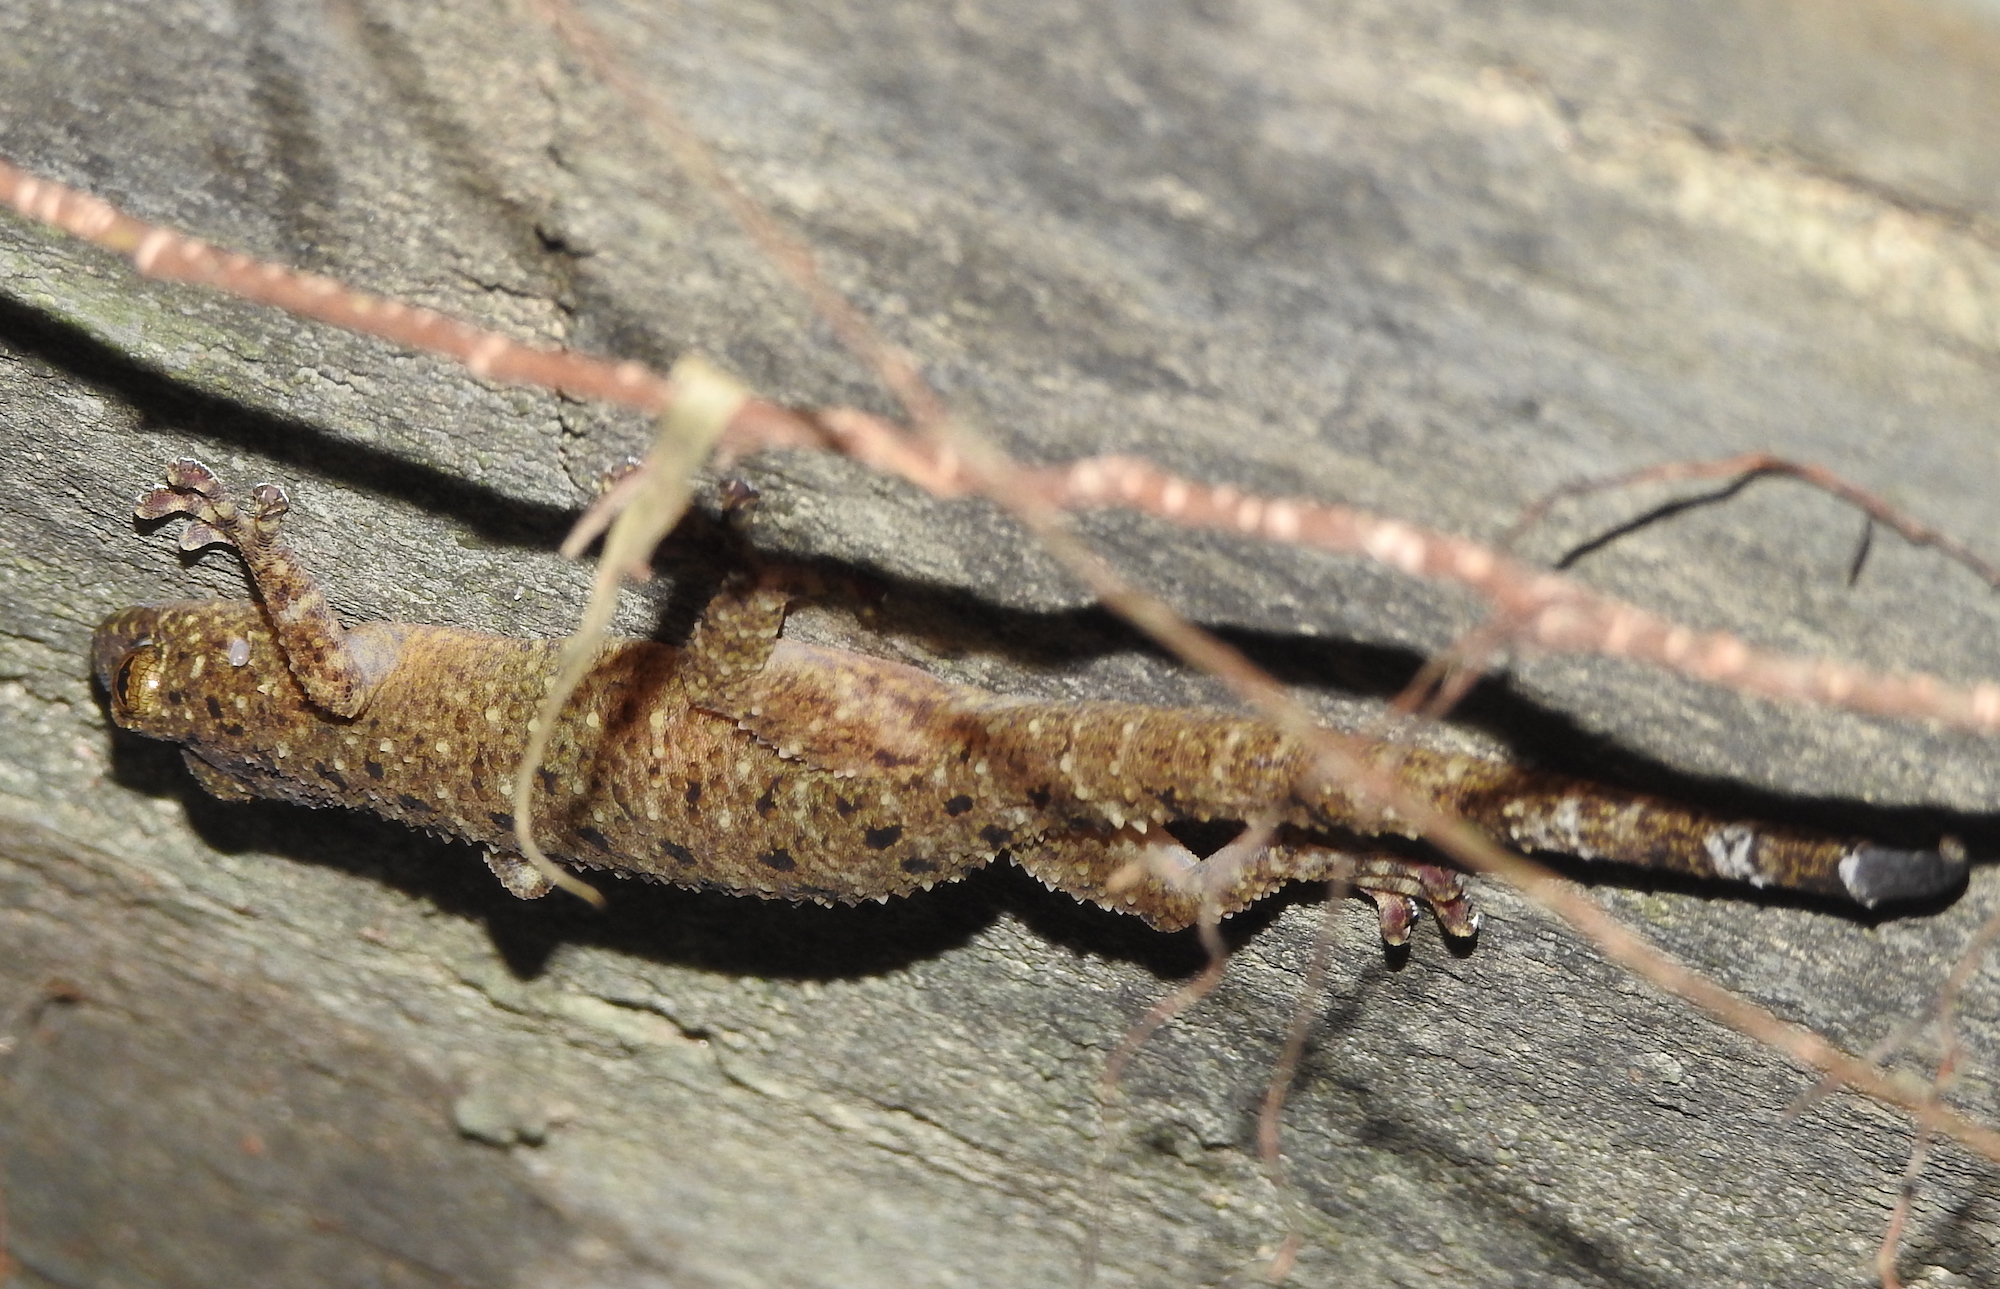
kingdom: Animalia
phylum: Chordata
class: Squamata
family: Gekkonidae
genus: Gekko
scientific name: Gekko monarchus
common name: Spotted house gecko
